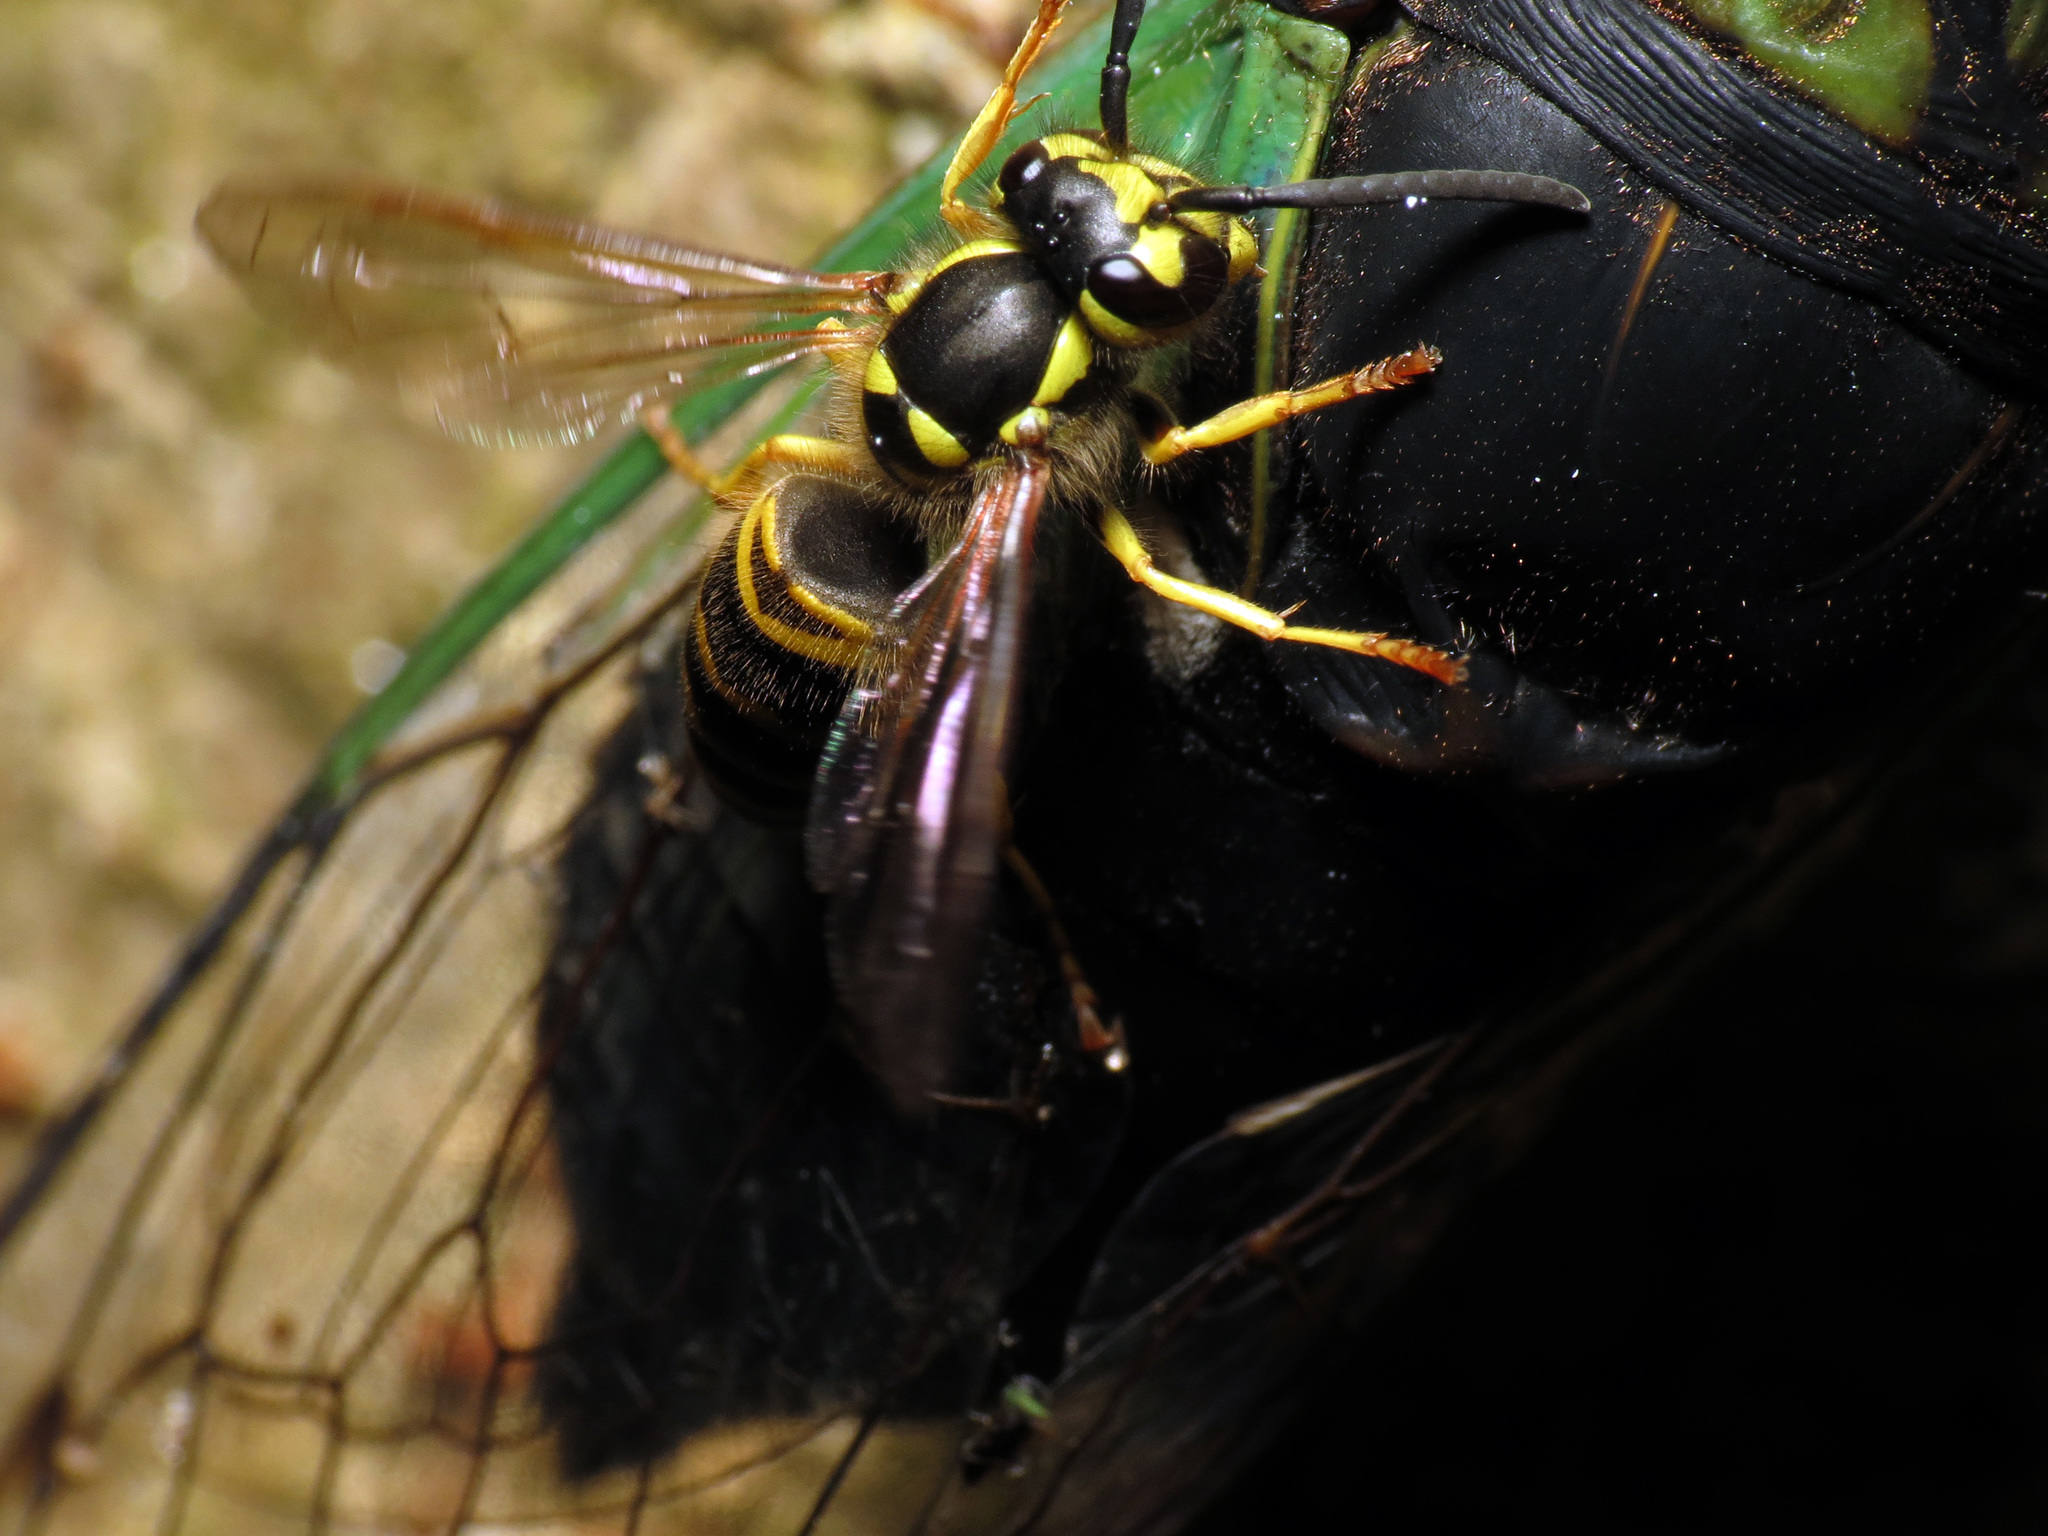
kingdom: Animalia
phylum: Arthropoda
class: Insecta
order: Hymenoptera
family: Vespidae
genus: Vespula
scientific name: Vespula maculifrons
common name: Eastern yellowjacket
